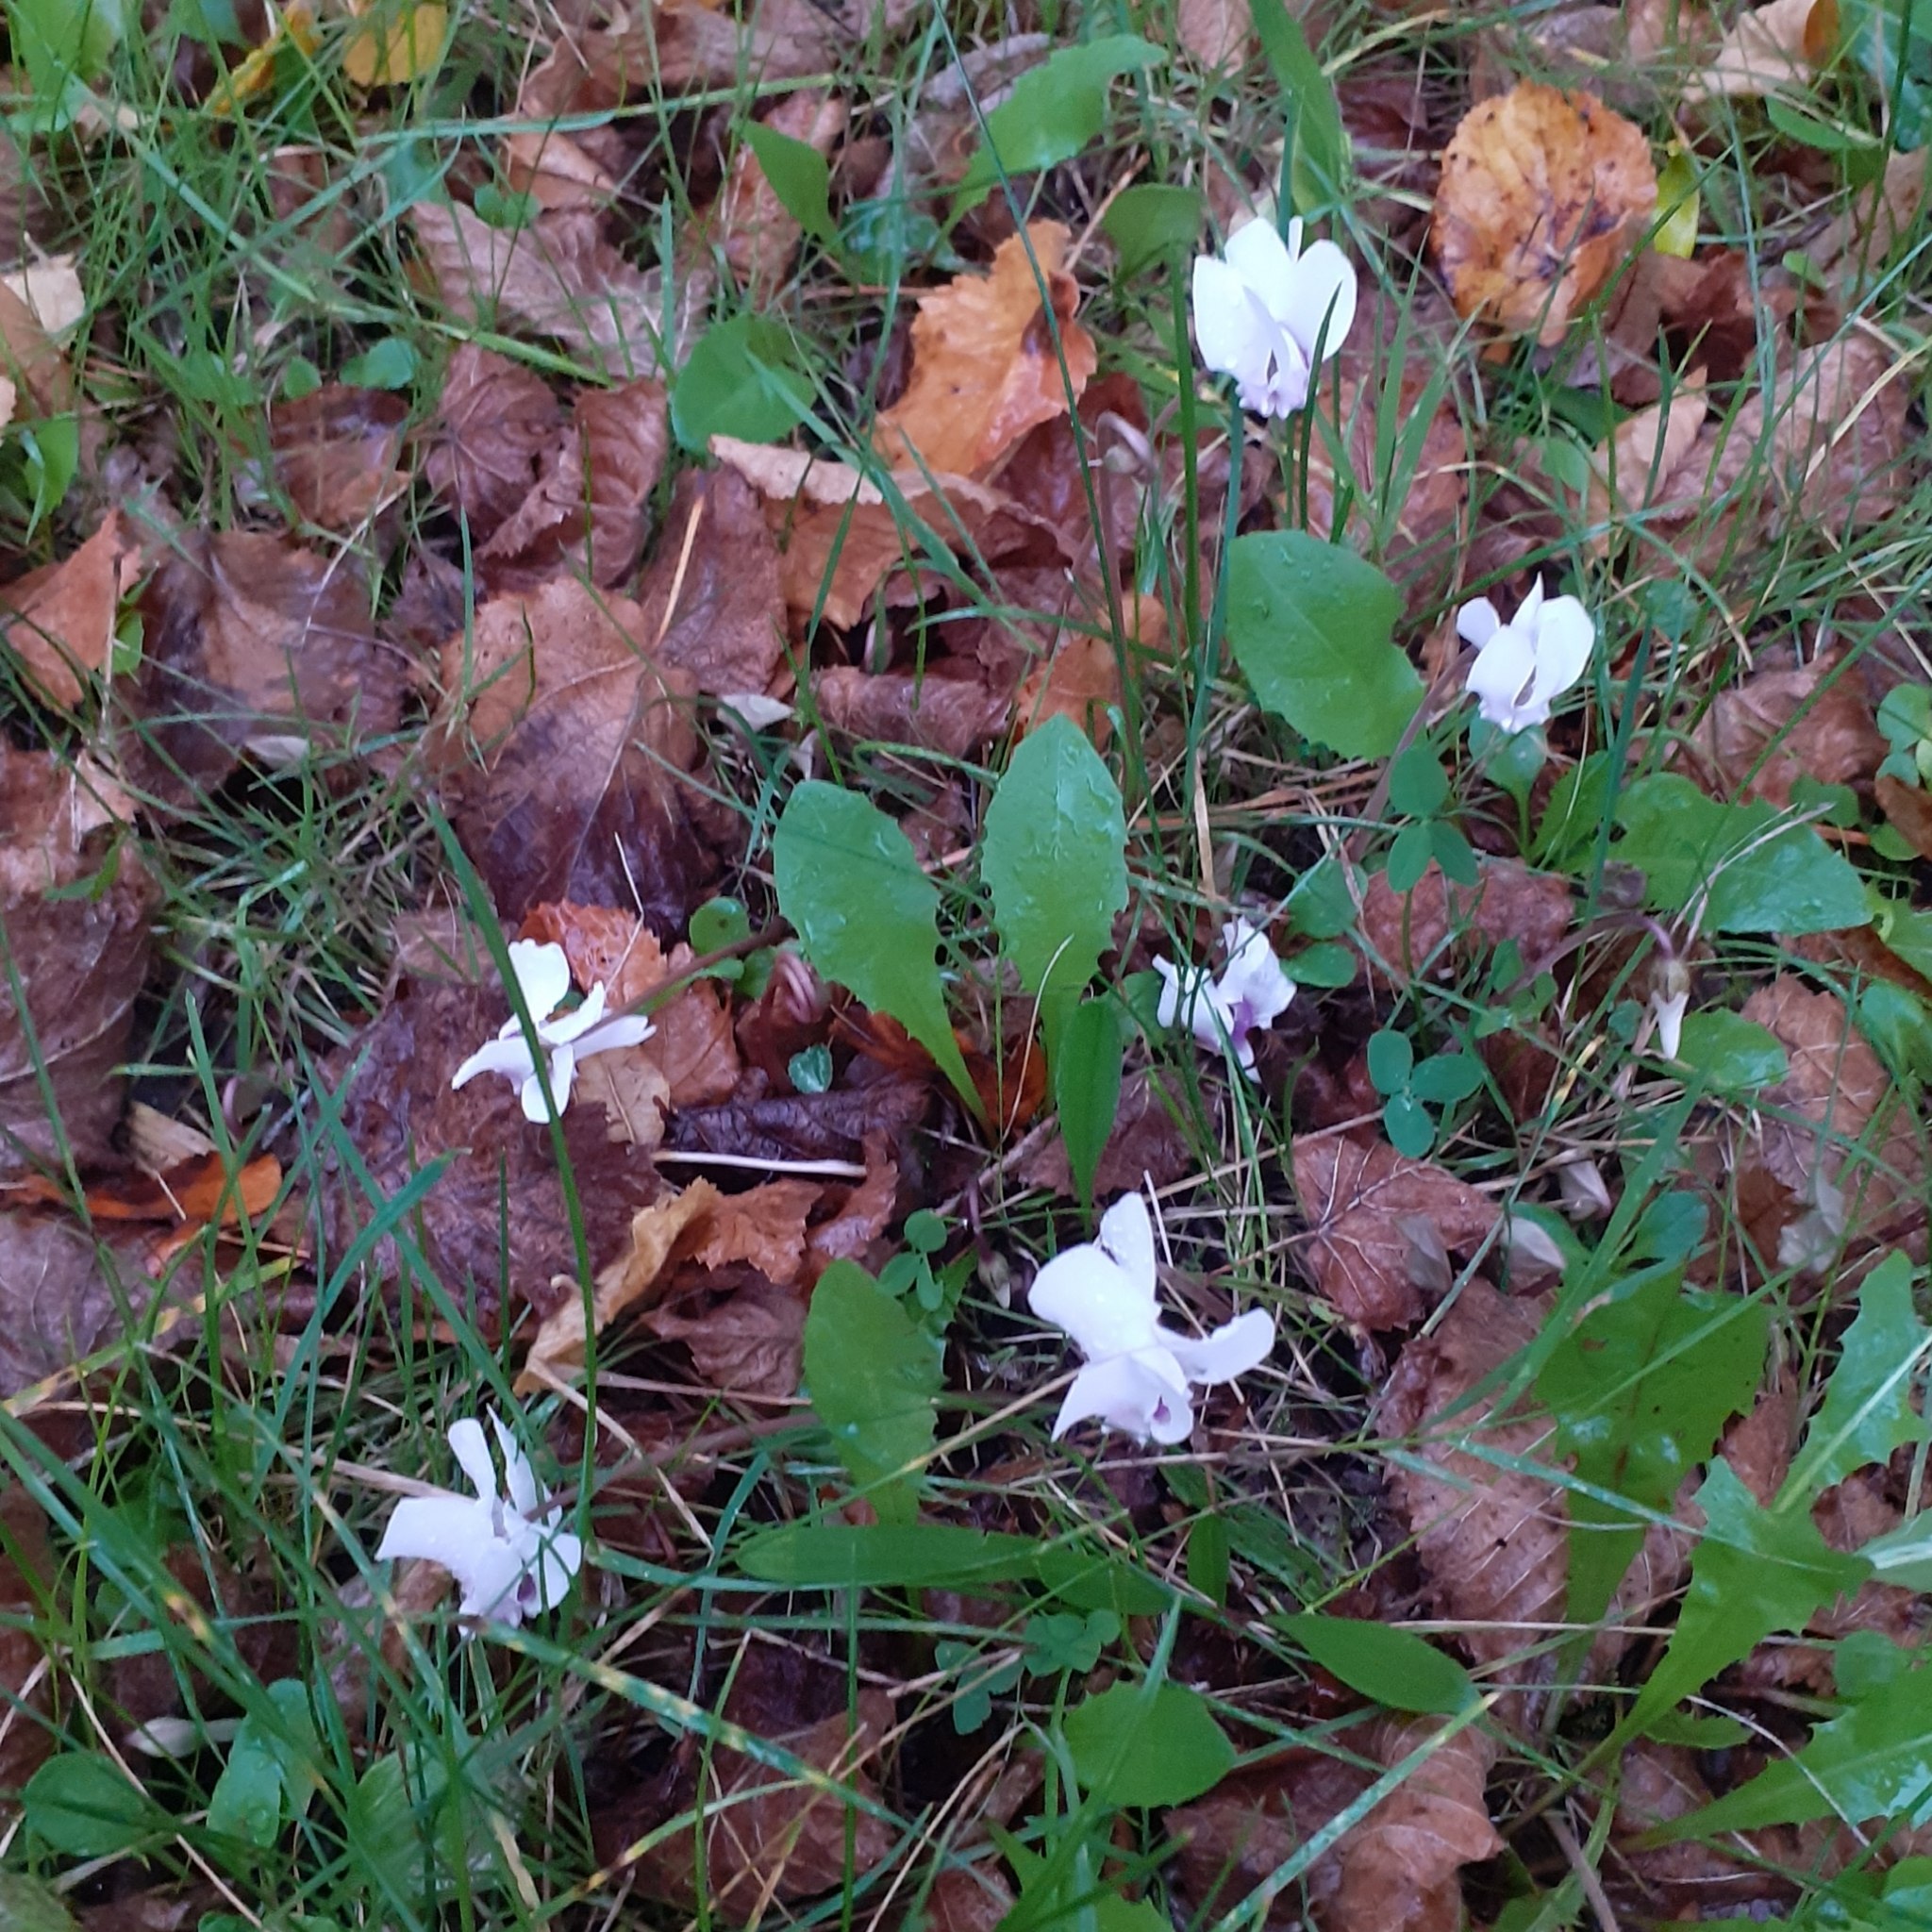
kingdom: Plantae
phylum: Tracheophyta
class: Magnoliopsida
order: Ericales
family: Primulaceae
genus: Cyclamen
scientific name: Cyclamen hederifolium
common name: Sowbread
